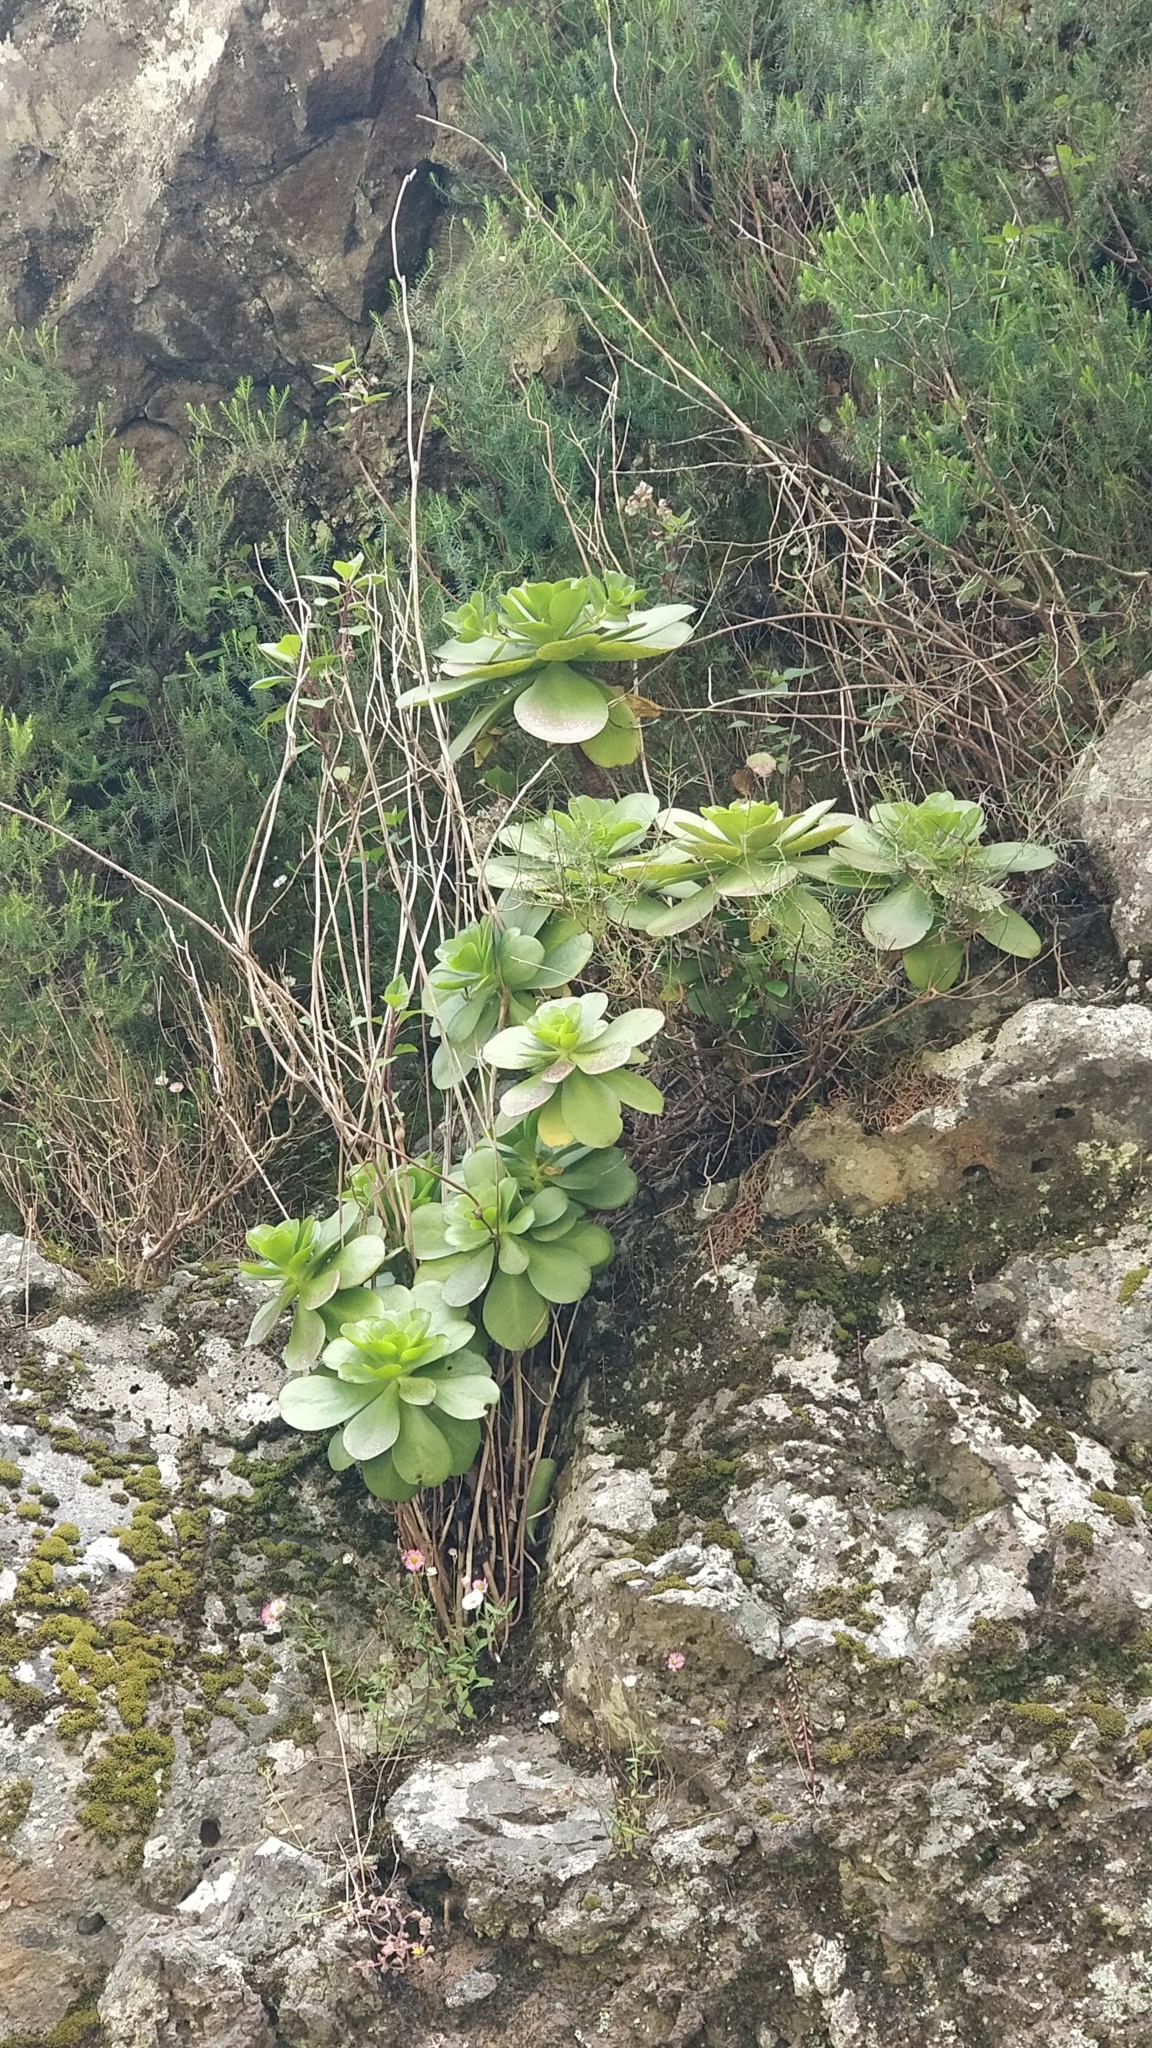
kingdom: Plantae
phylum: Tracheophyta
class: Magnoliopsida
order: Saxifragales
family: Crassulaceae
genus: Aeonium
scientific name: Aeonium glutinosum
